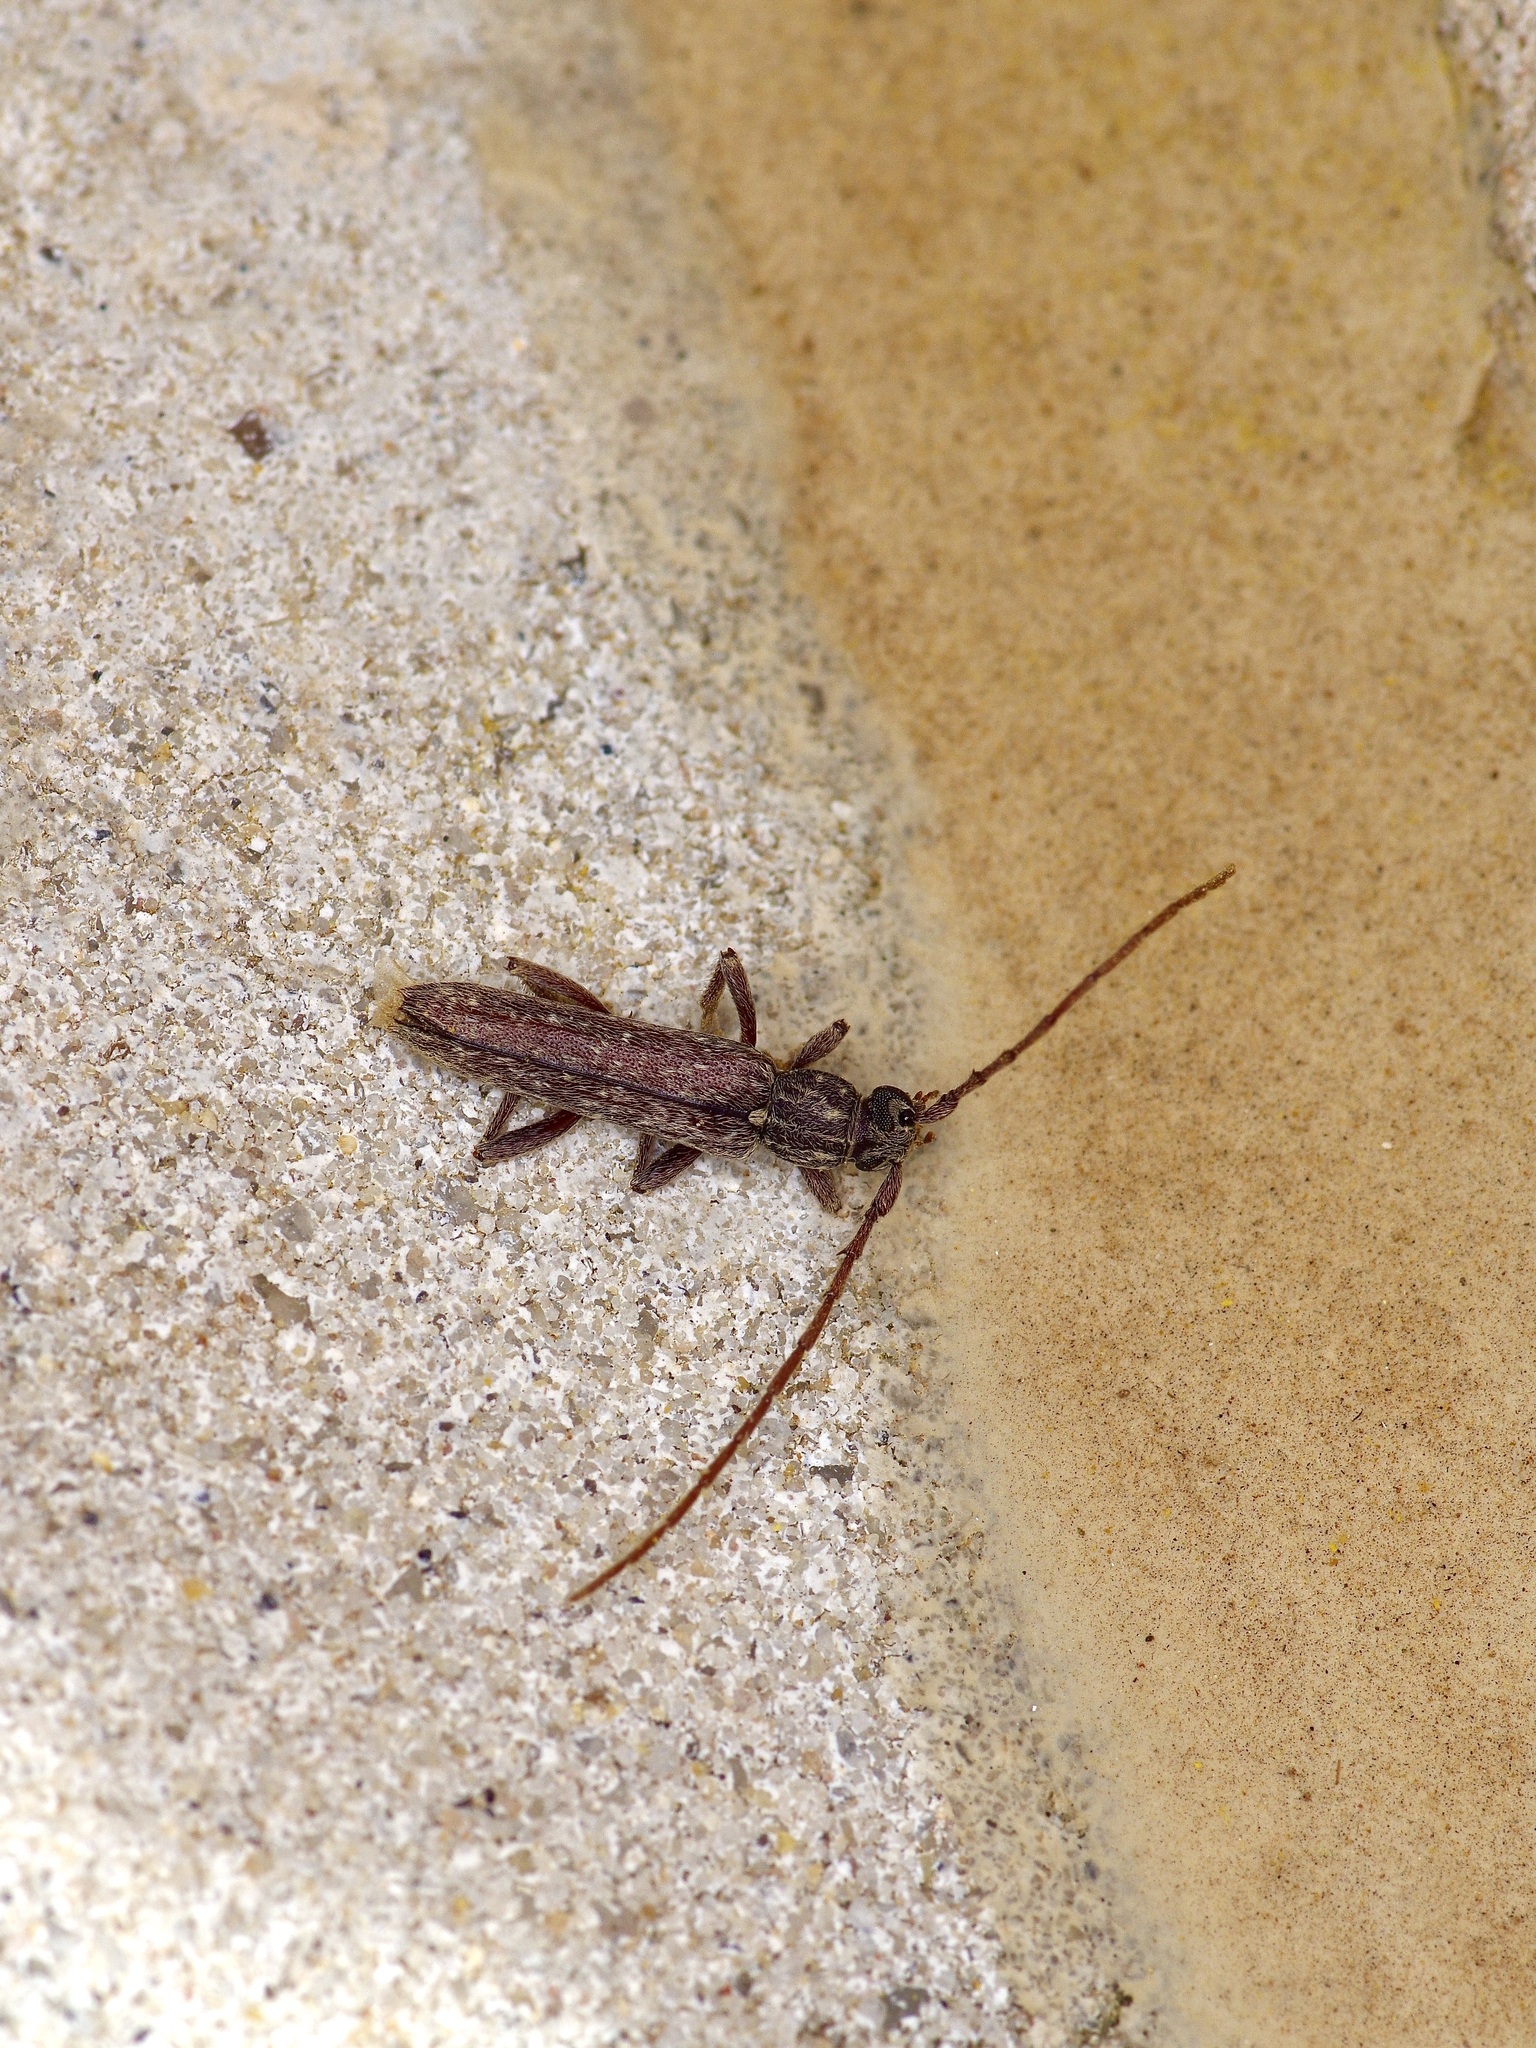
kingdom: Animalia
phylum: Arthropoda
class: Insecta
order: Coleoptera
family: Cerambycidae
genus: Anelaphus
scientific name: Anelaphus villosus
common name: Twig pruner
